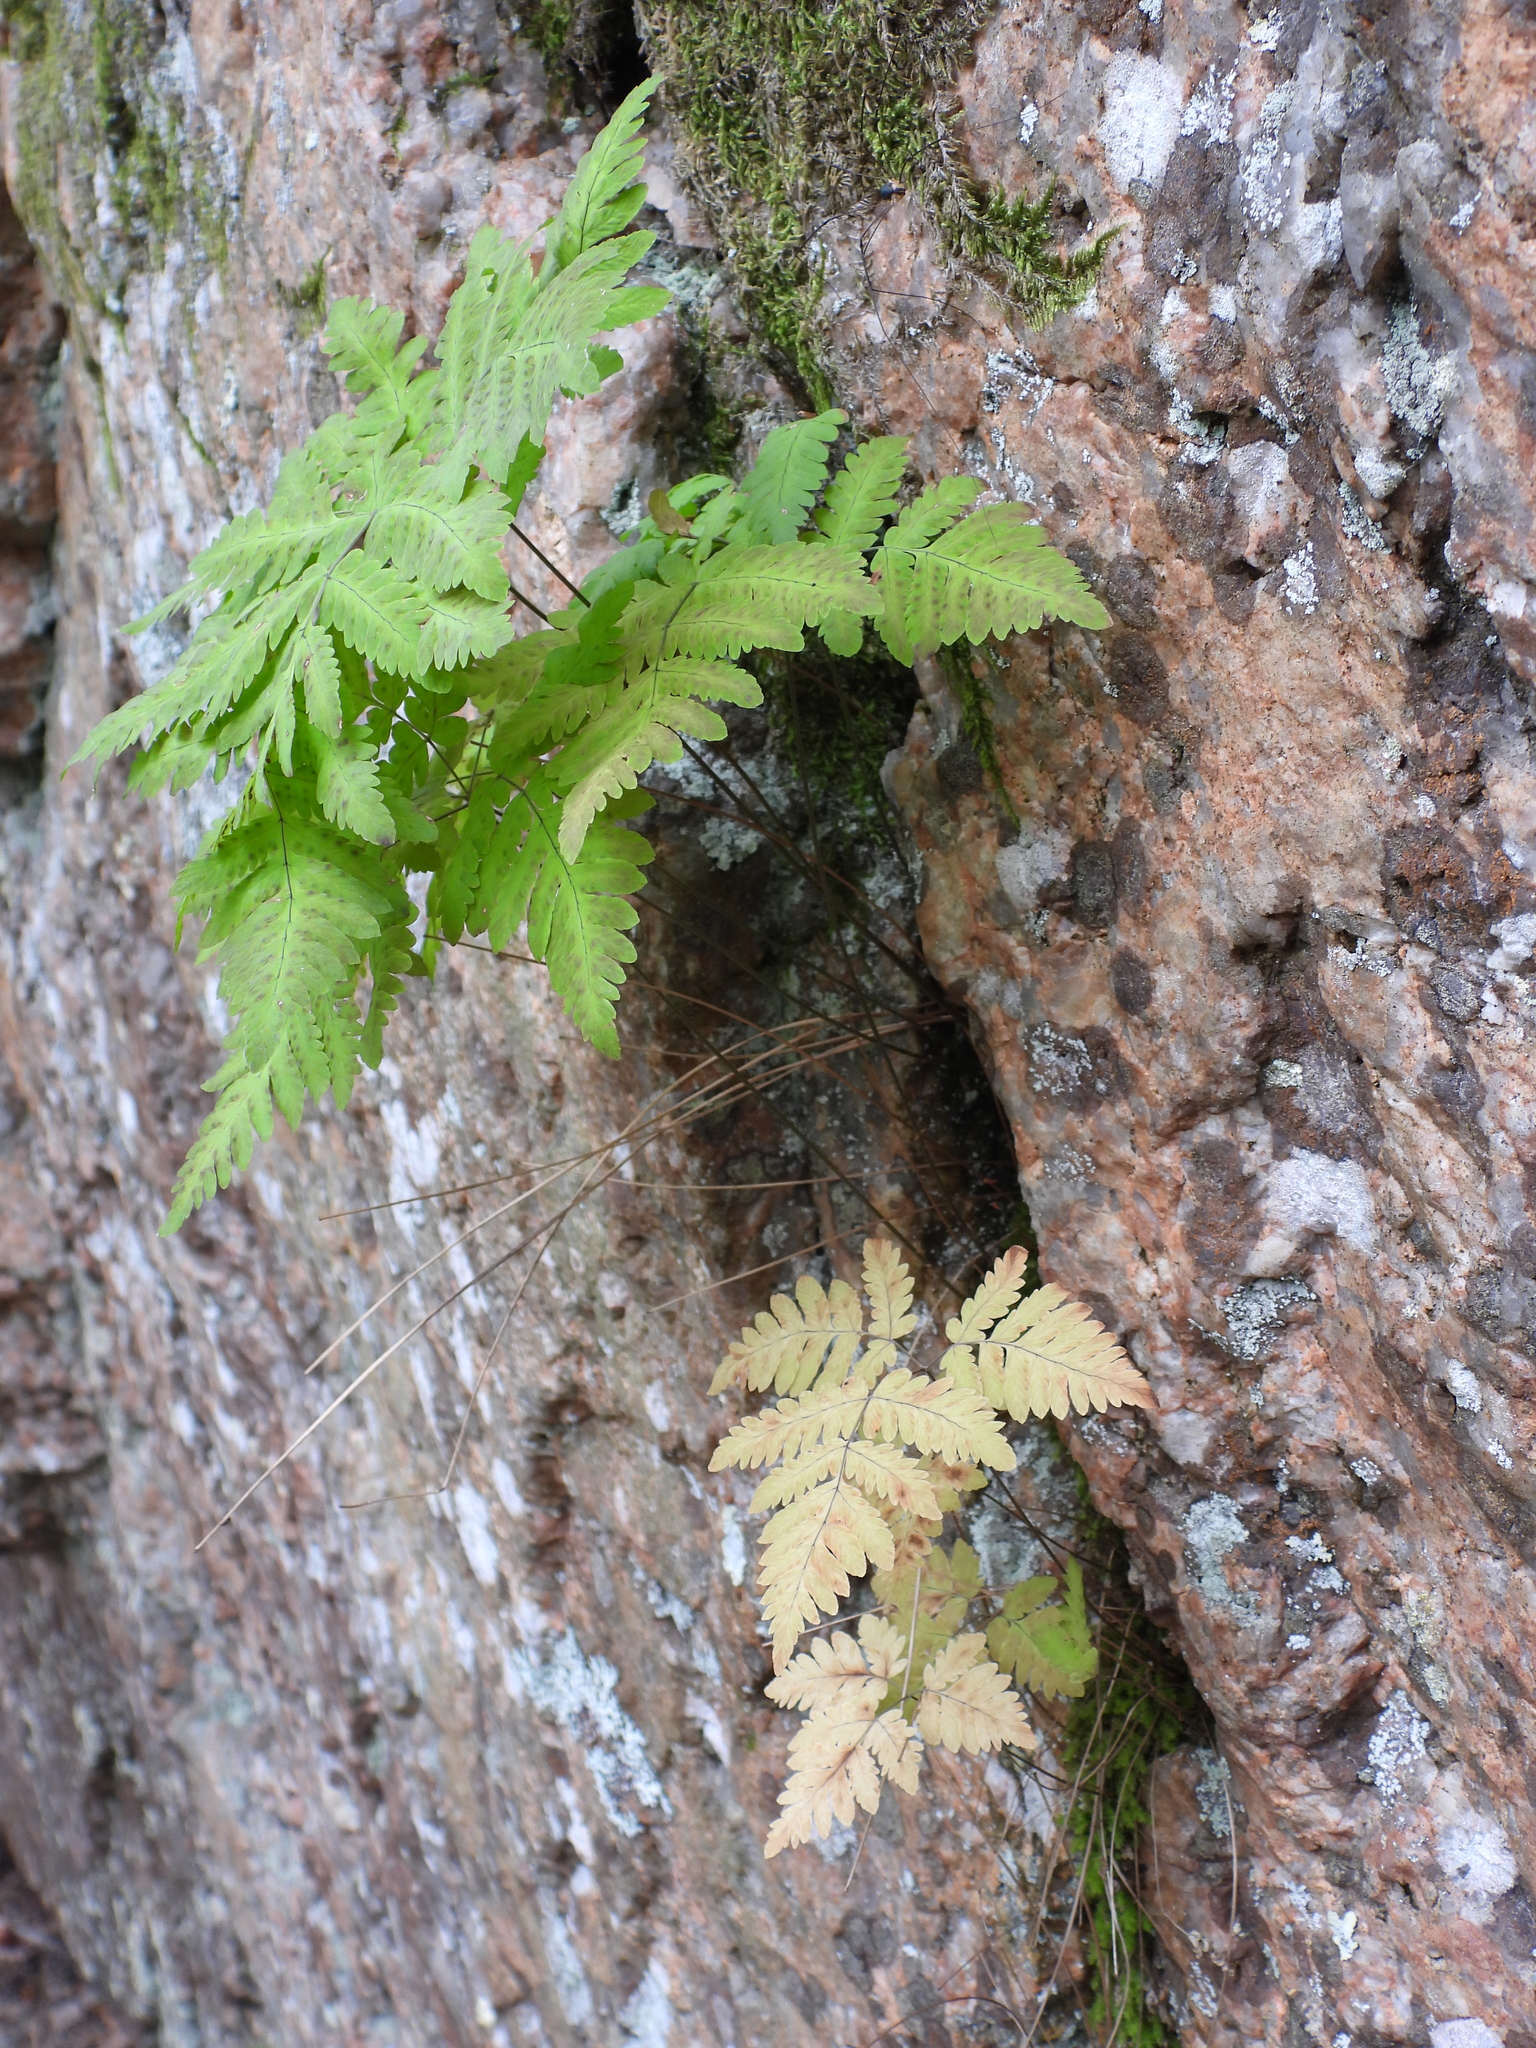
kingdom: Plantae
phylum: Tracheophyta
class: Polypodiopsida
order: Polypodiales
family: Cystopteridaceae
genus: Gymnocarpium
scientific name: Gymnocarpium dryopteris
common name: Oak fern
